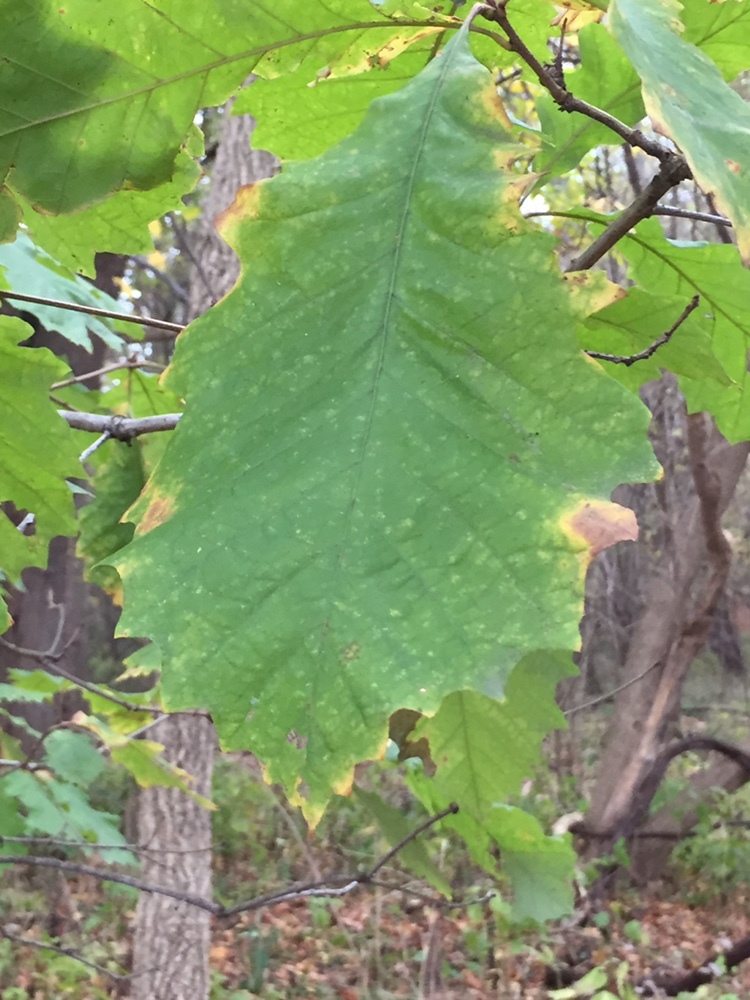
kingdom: Plantae
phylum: Tracheophyta
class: Magnoliopsida
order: Fagales
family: Fagaceae
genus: Quercus
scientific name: Quercus bicolor
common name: Swamp white oak
